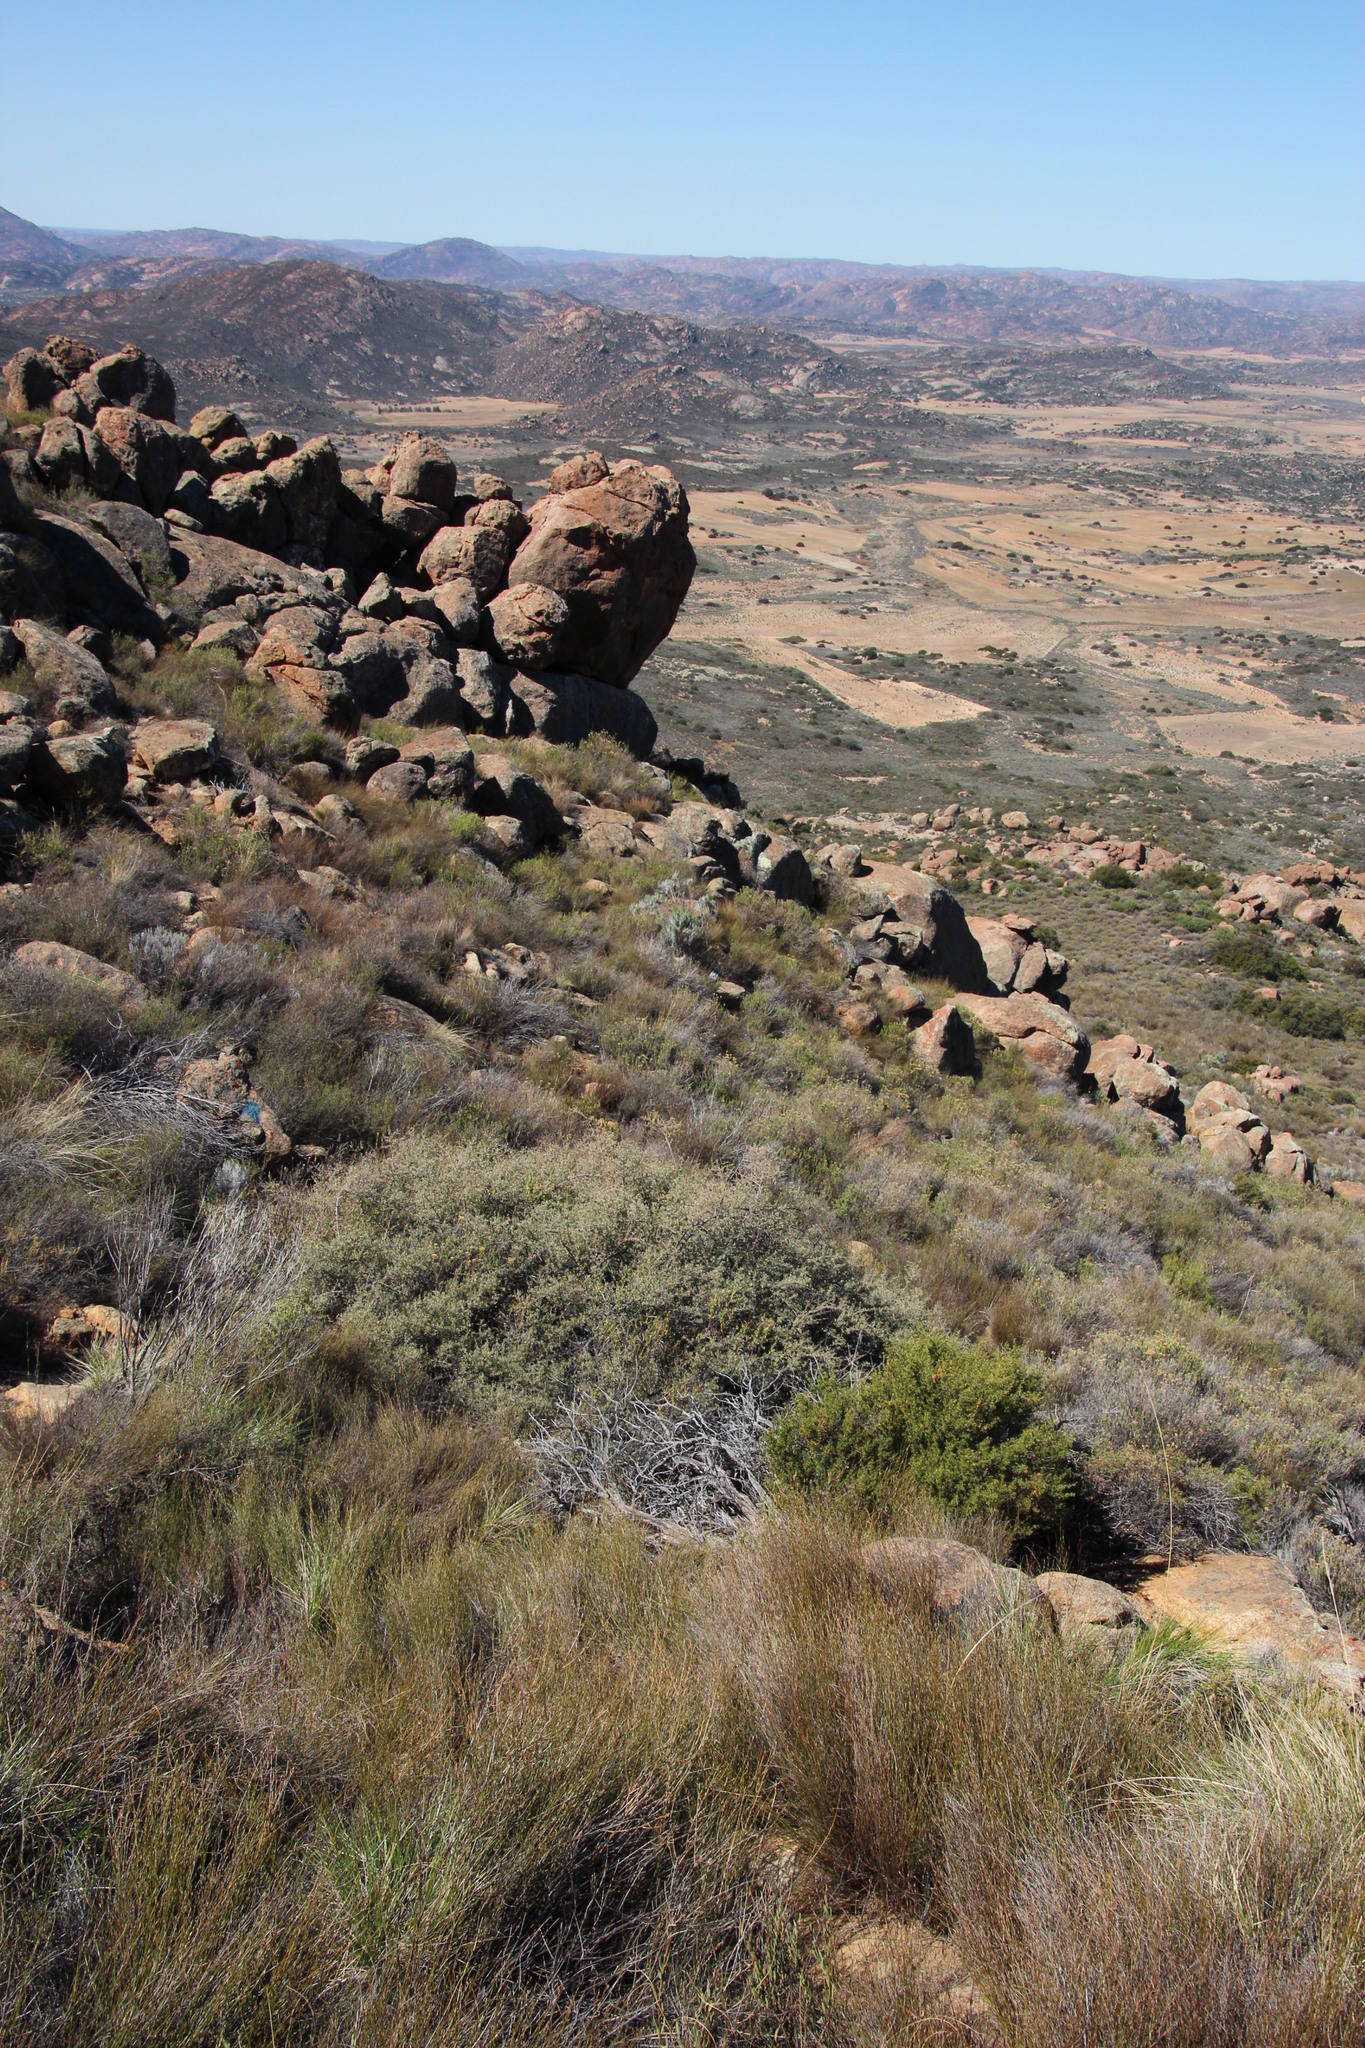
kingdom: Plantae
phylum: Tracheophyta
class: Magnoliopsida
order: Lamiales
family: Lamiaceae
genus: Stachys
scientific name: Stachys flavescens
